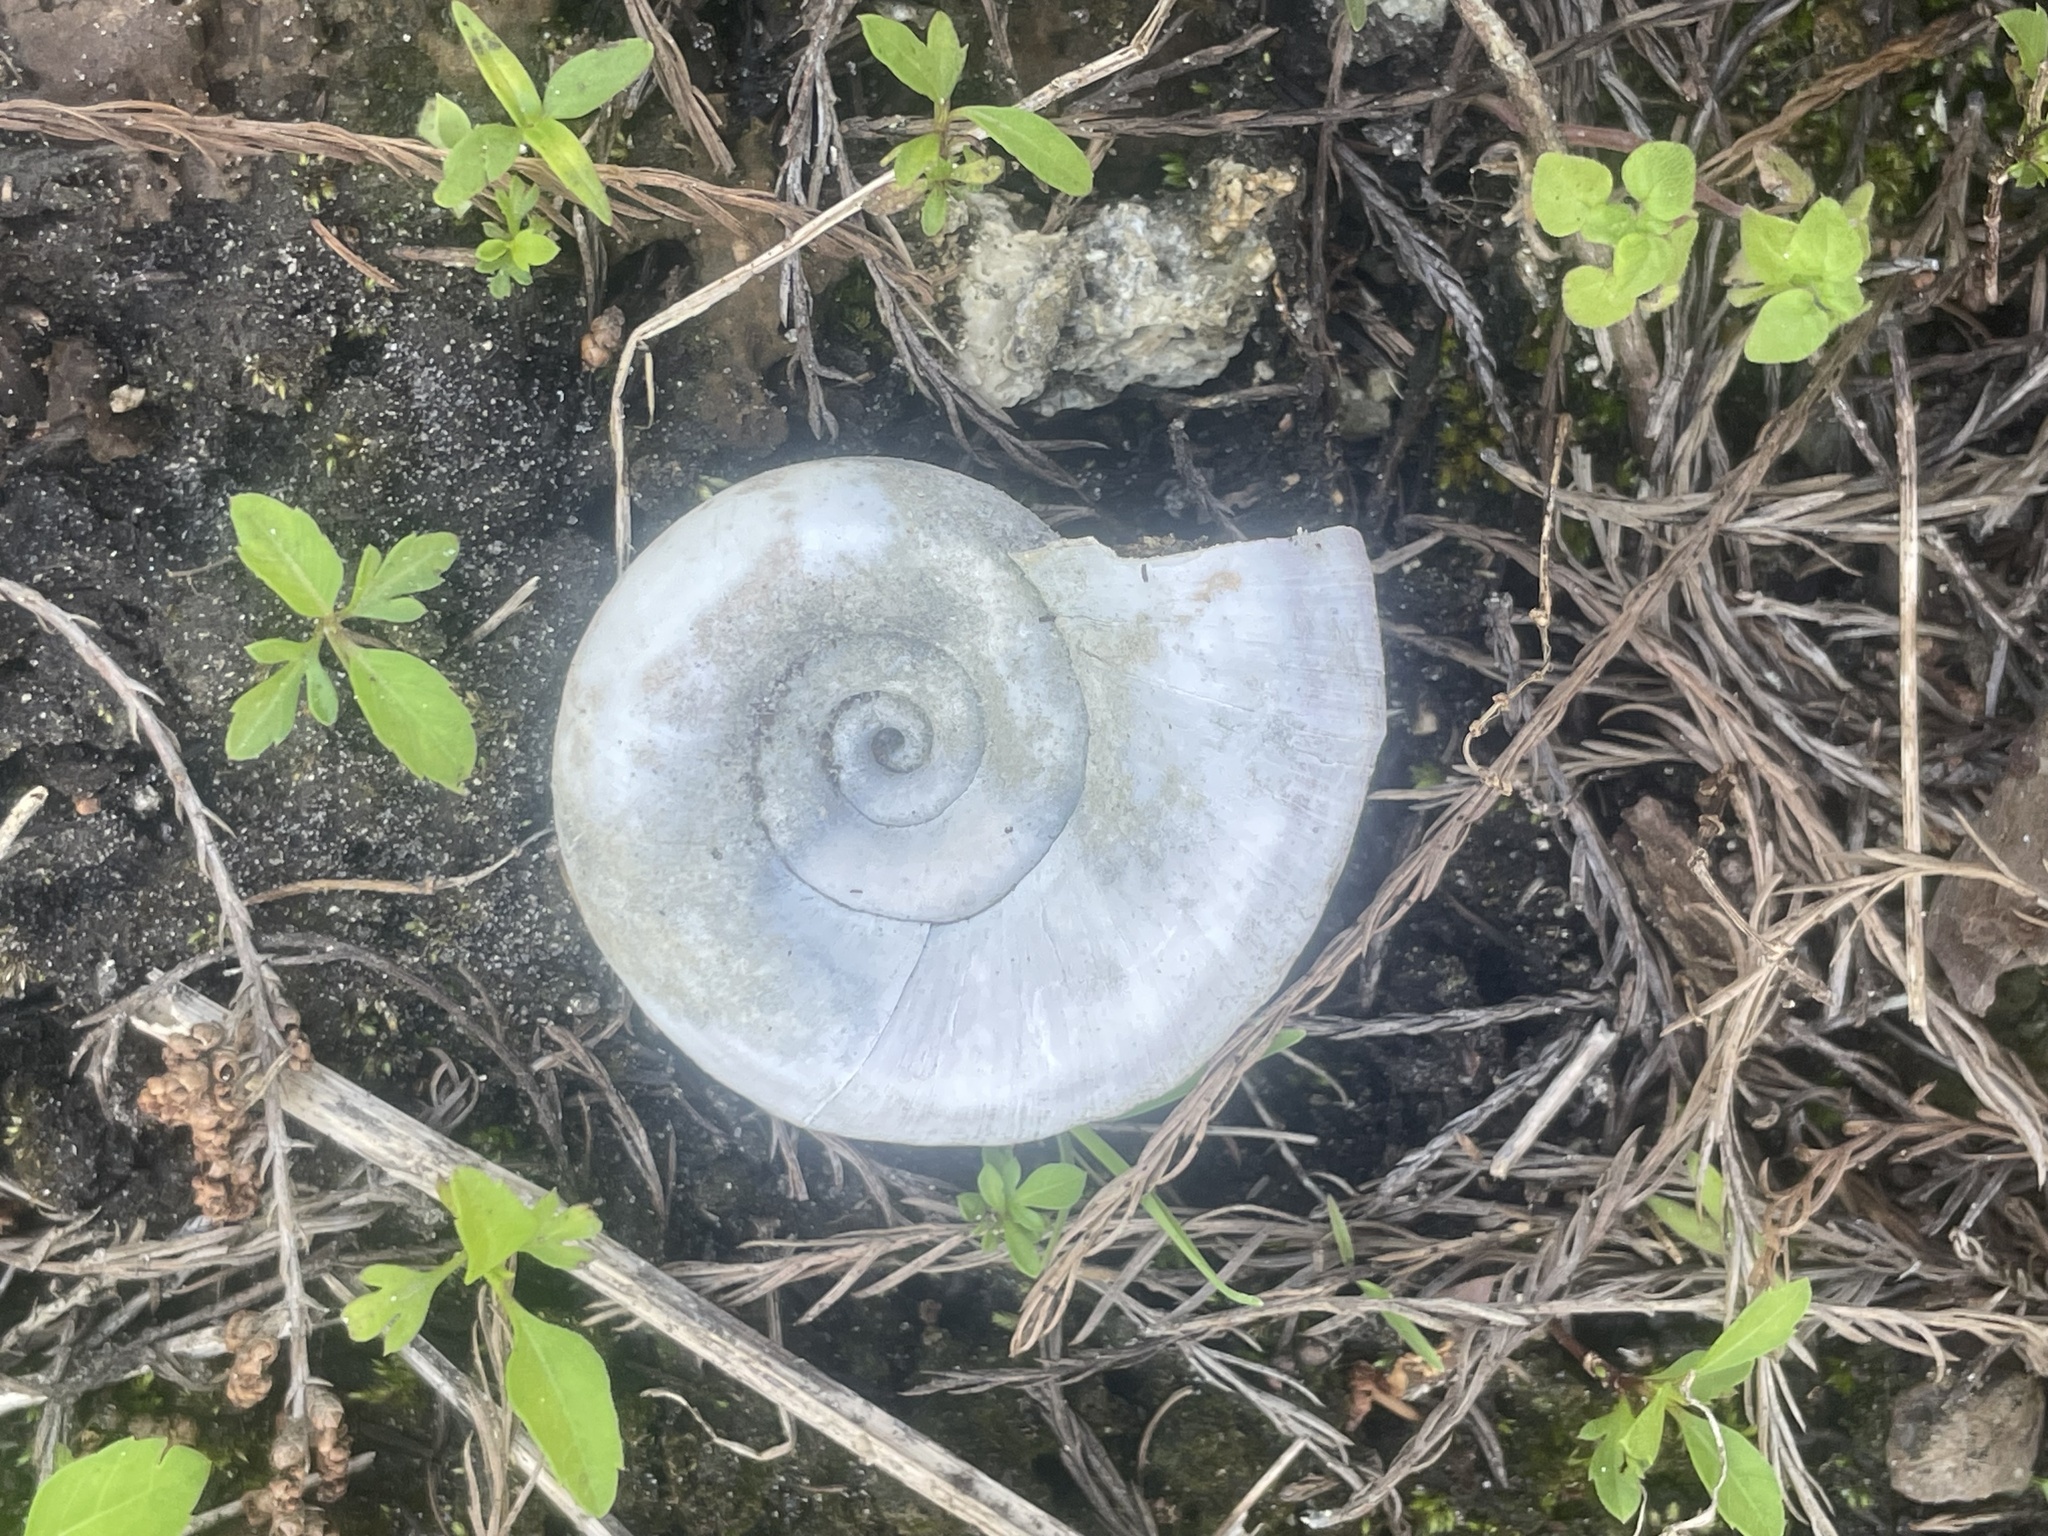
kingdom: Animalia
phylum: Mollusca
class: Gastropoda
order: Architaenioglossa
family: Ampullariidae
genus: Marisa
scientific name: Marisa cornuarietis
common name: Giant ramshorn snail
